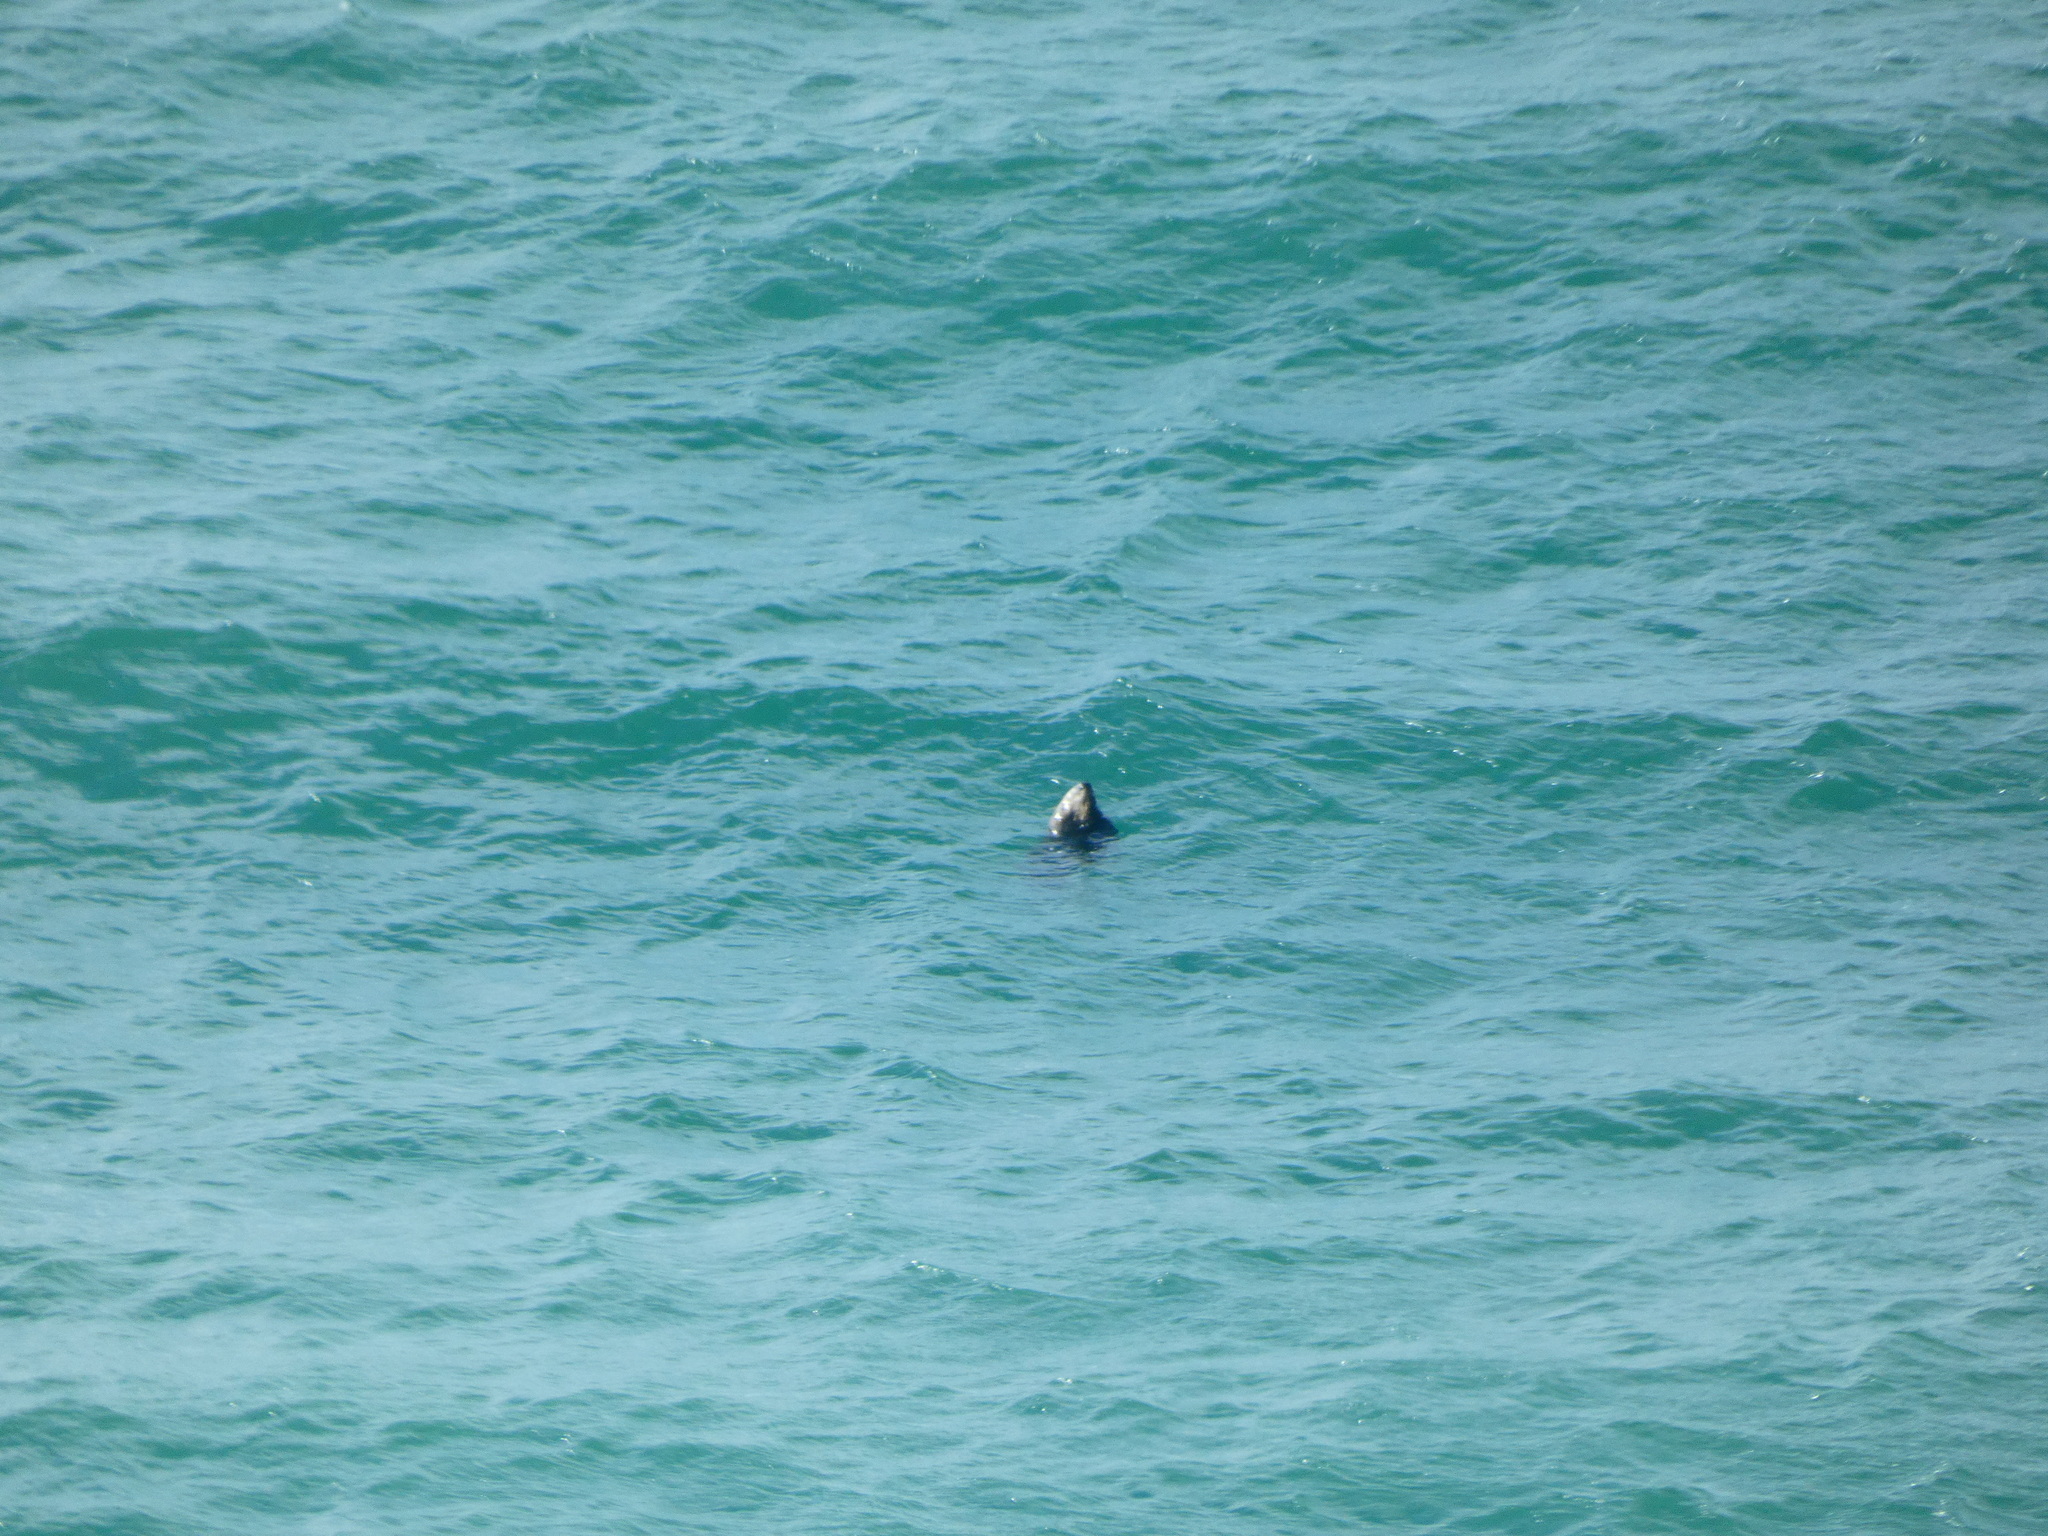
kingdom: Animalia
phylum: Chordata
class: Mammalia
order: Carnivora
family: Phocidae
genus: Halichoerus
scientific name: Halichoerus grypus
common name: Grey seal
